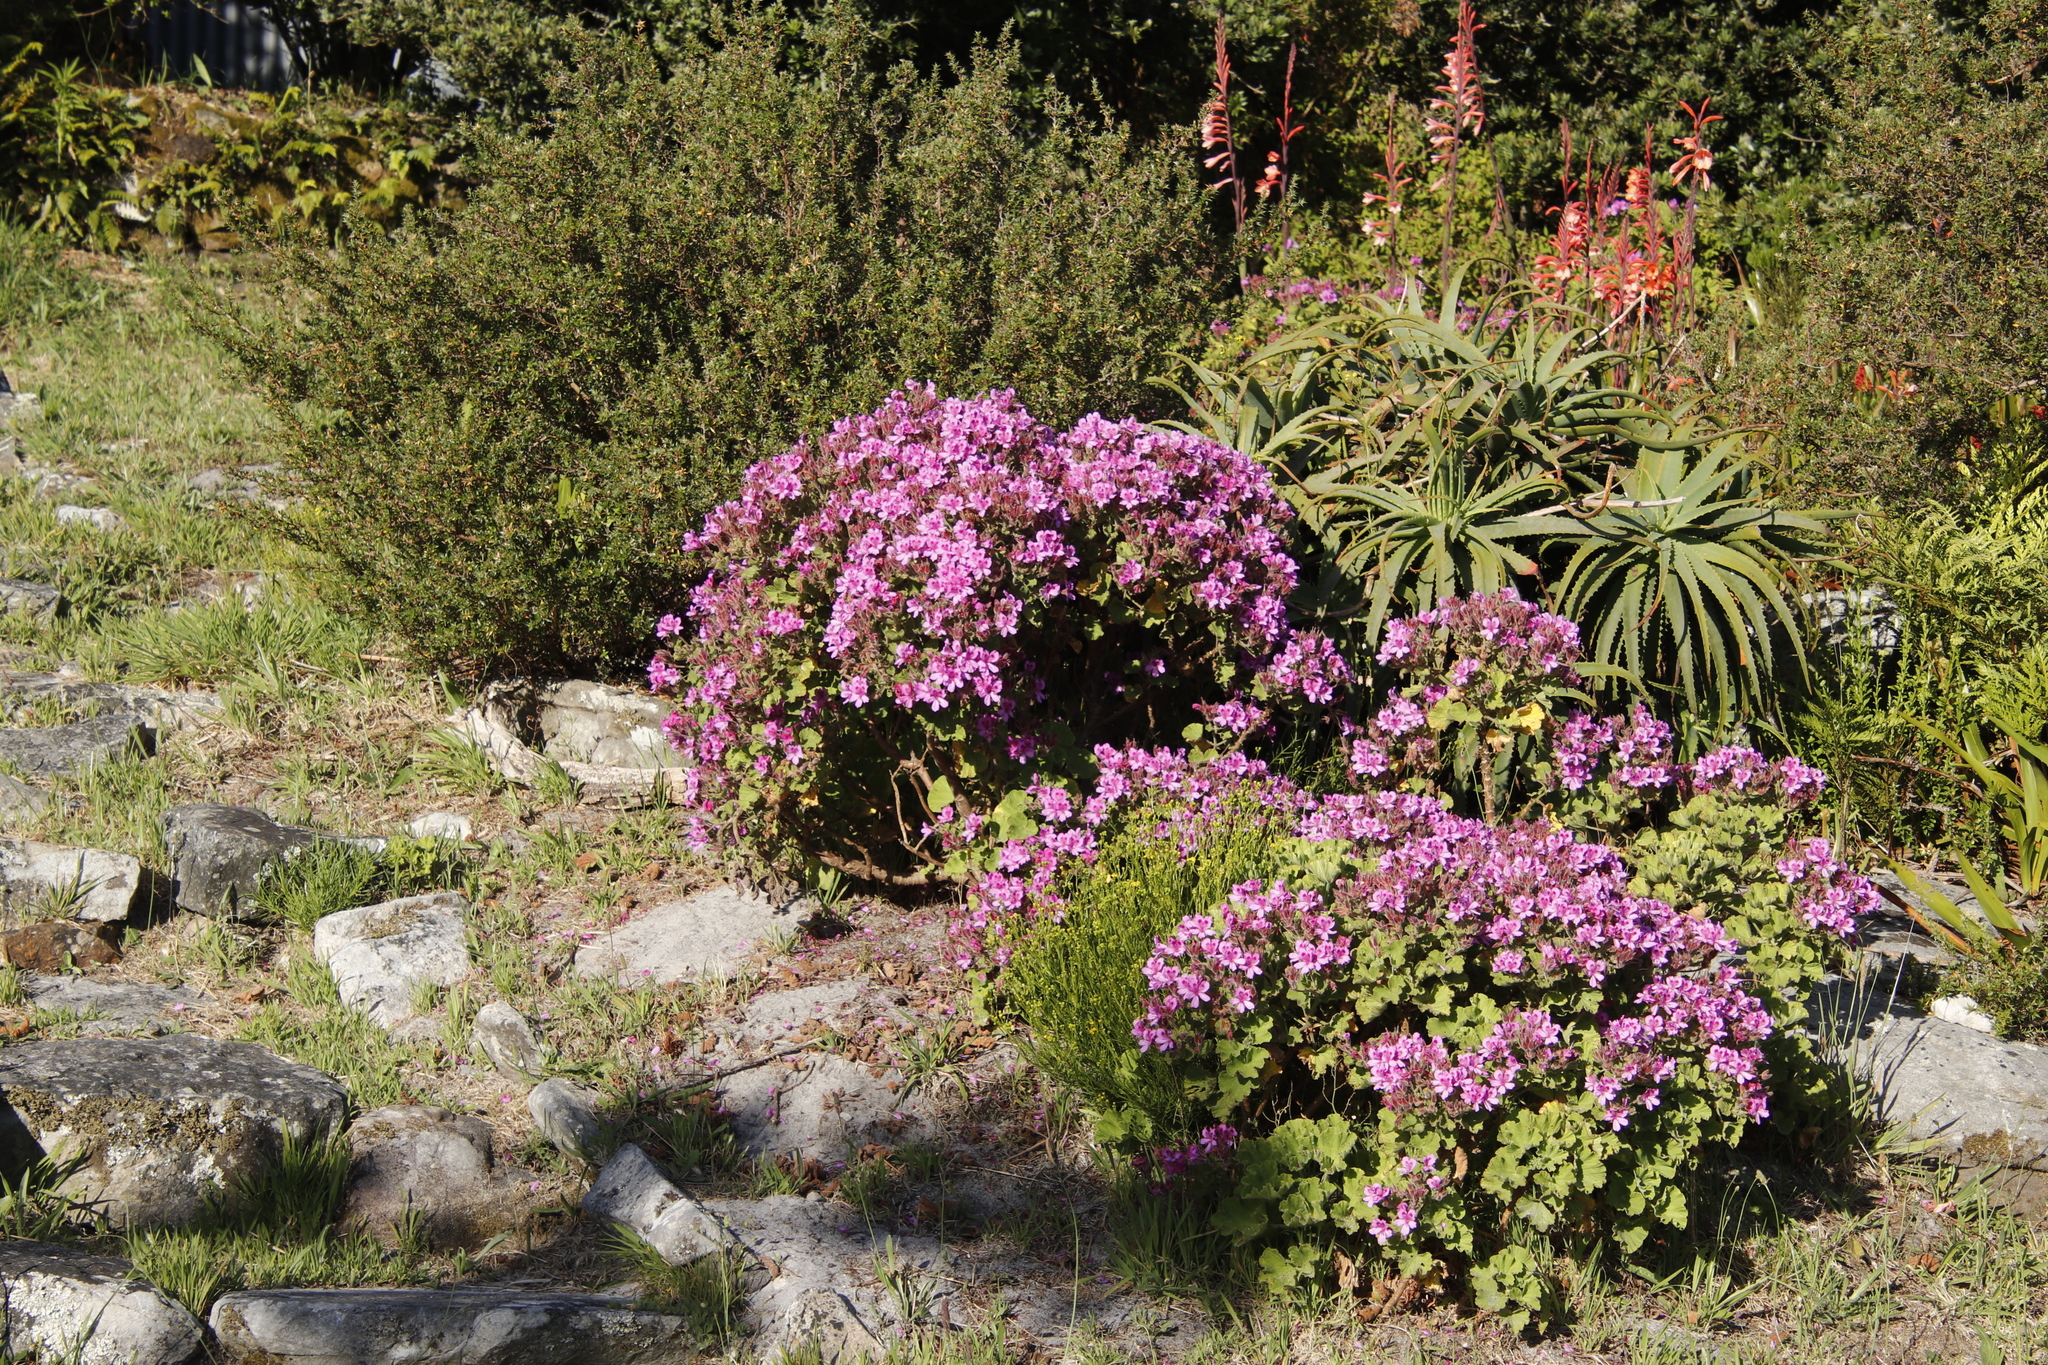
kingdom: Plantae
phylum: Tracheophyta
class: Magnoliopsida
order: Geraniales
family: Geraniaceae
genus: Pelargonium
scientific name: Pelargonium cucullatum
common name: Tree pelargonium
